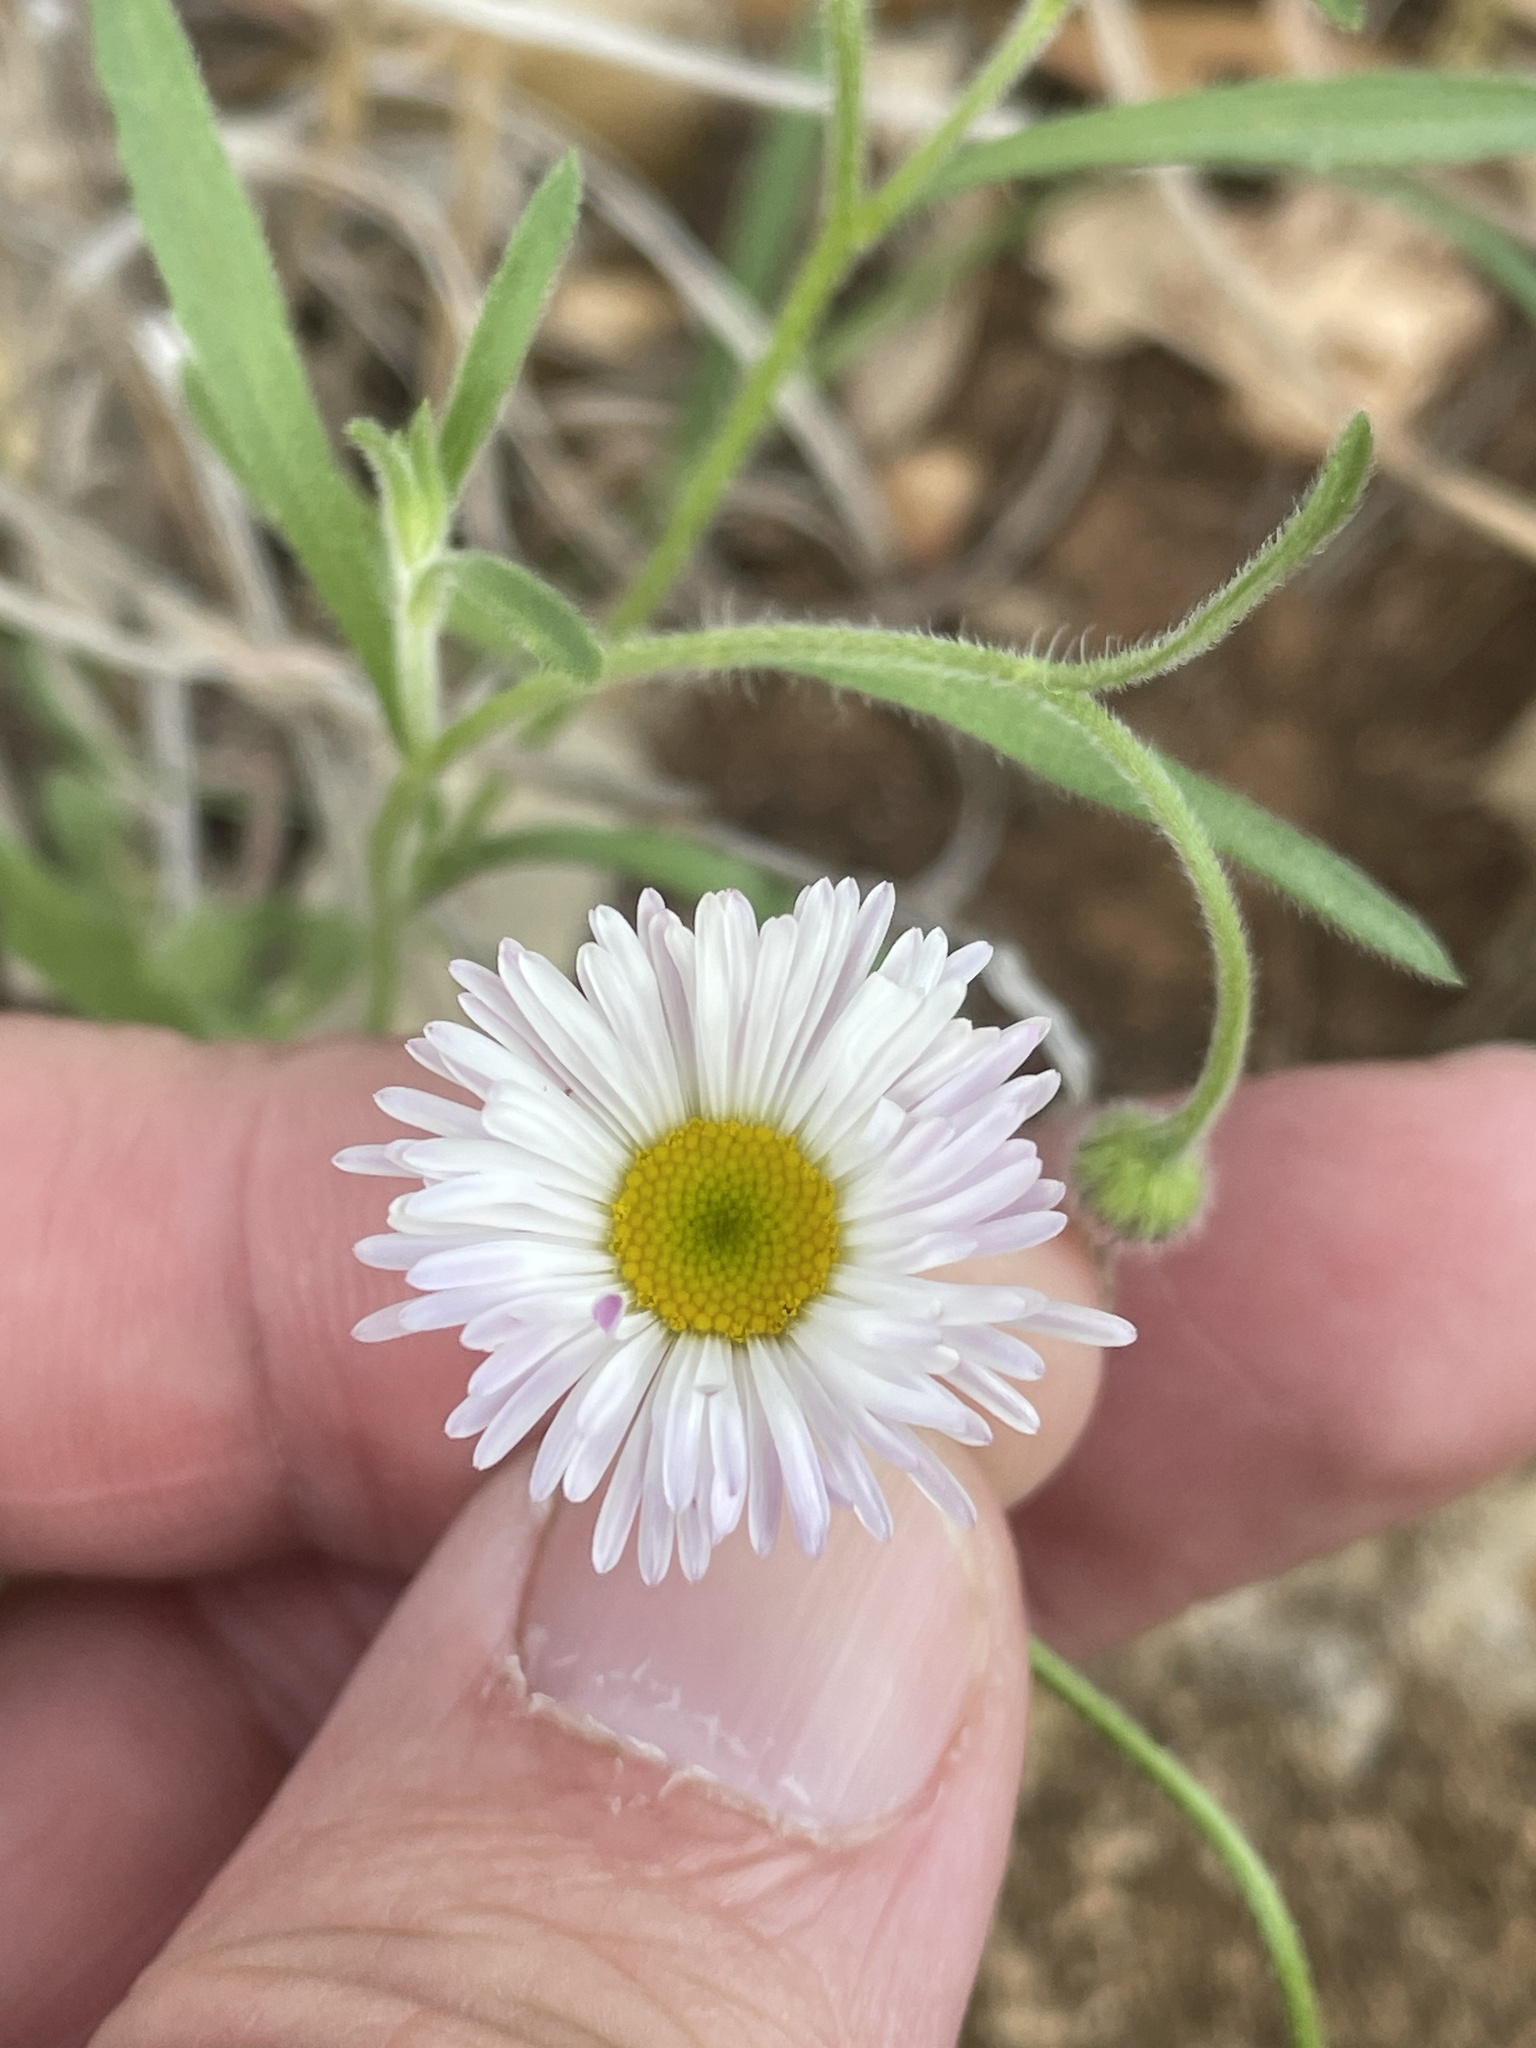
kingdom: Plantae
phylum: Tracheophyta
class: Magnoliopsida
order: Asterales
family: Asteraceae
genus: Erigeron
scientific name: Erigeron modestus
